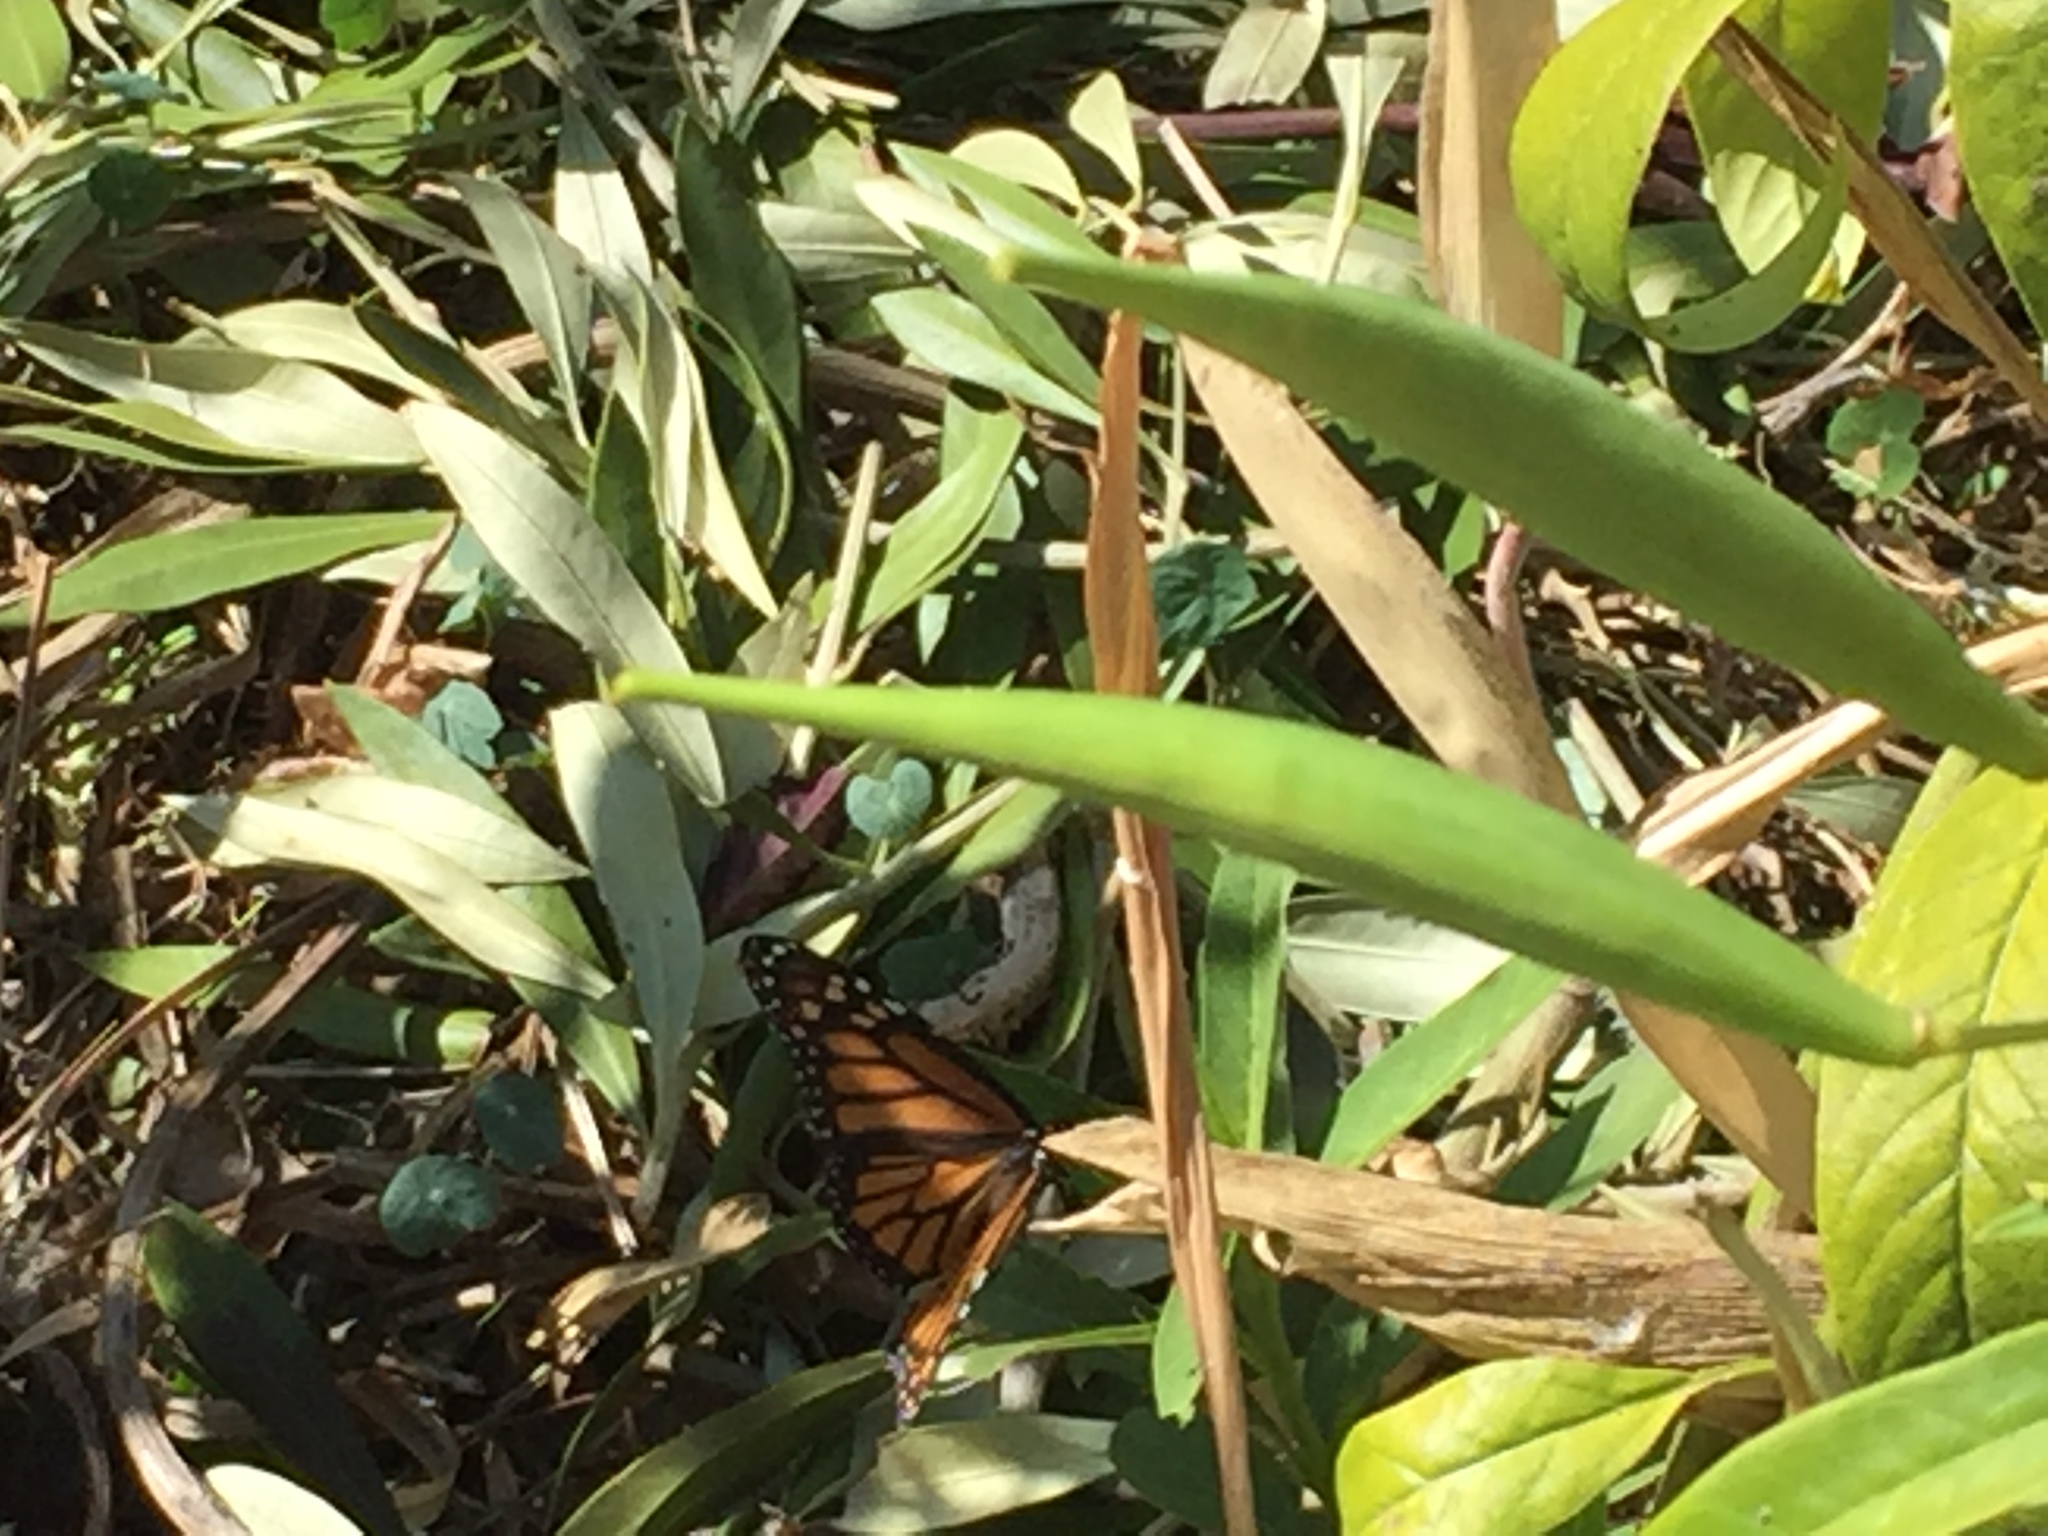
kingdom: Animalia
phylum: Arthropoda
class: Insecta
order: Lepidoptera
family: Nymphalidae
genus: Danaus
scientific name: Danaus plexippus
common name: Monarch
